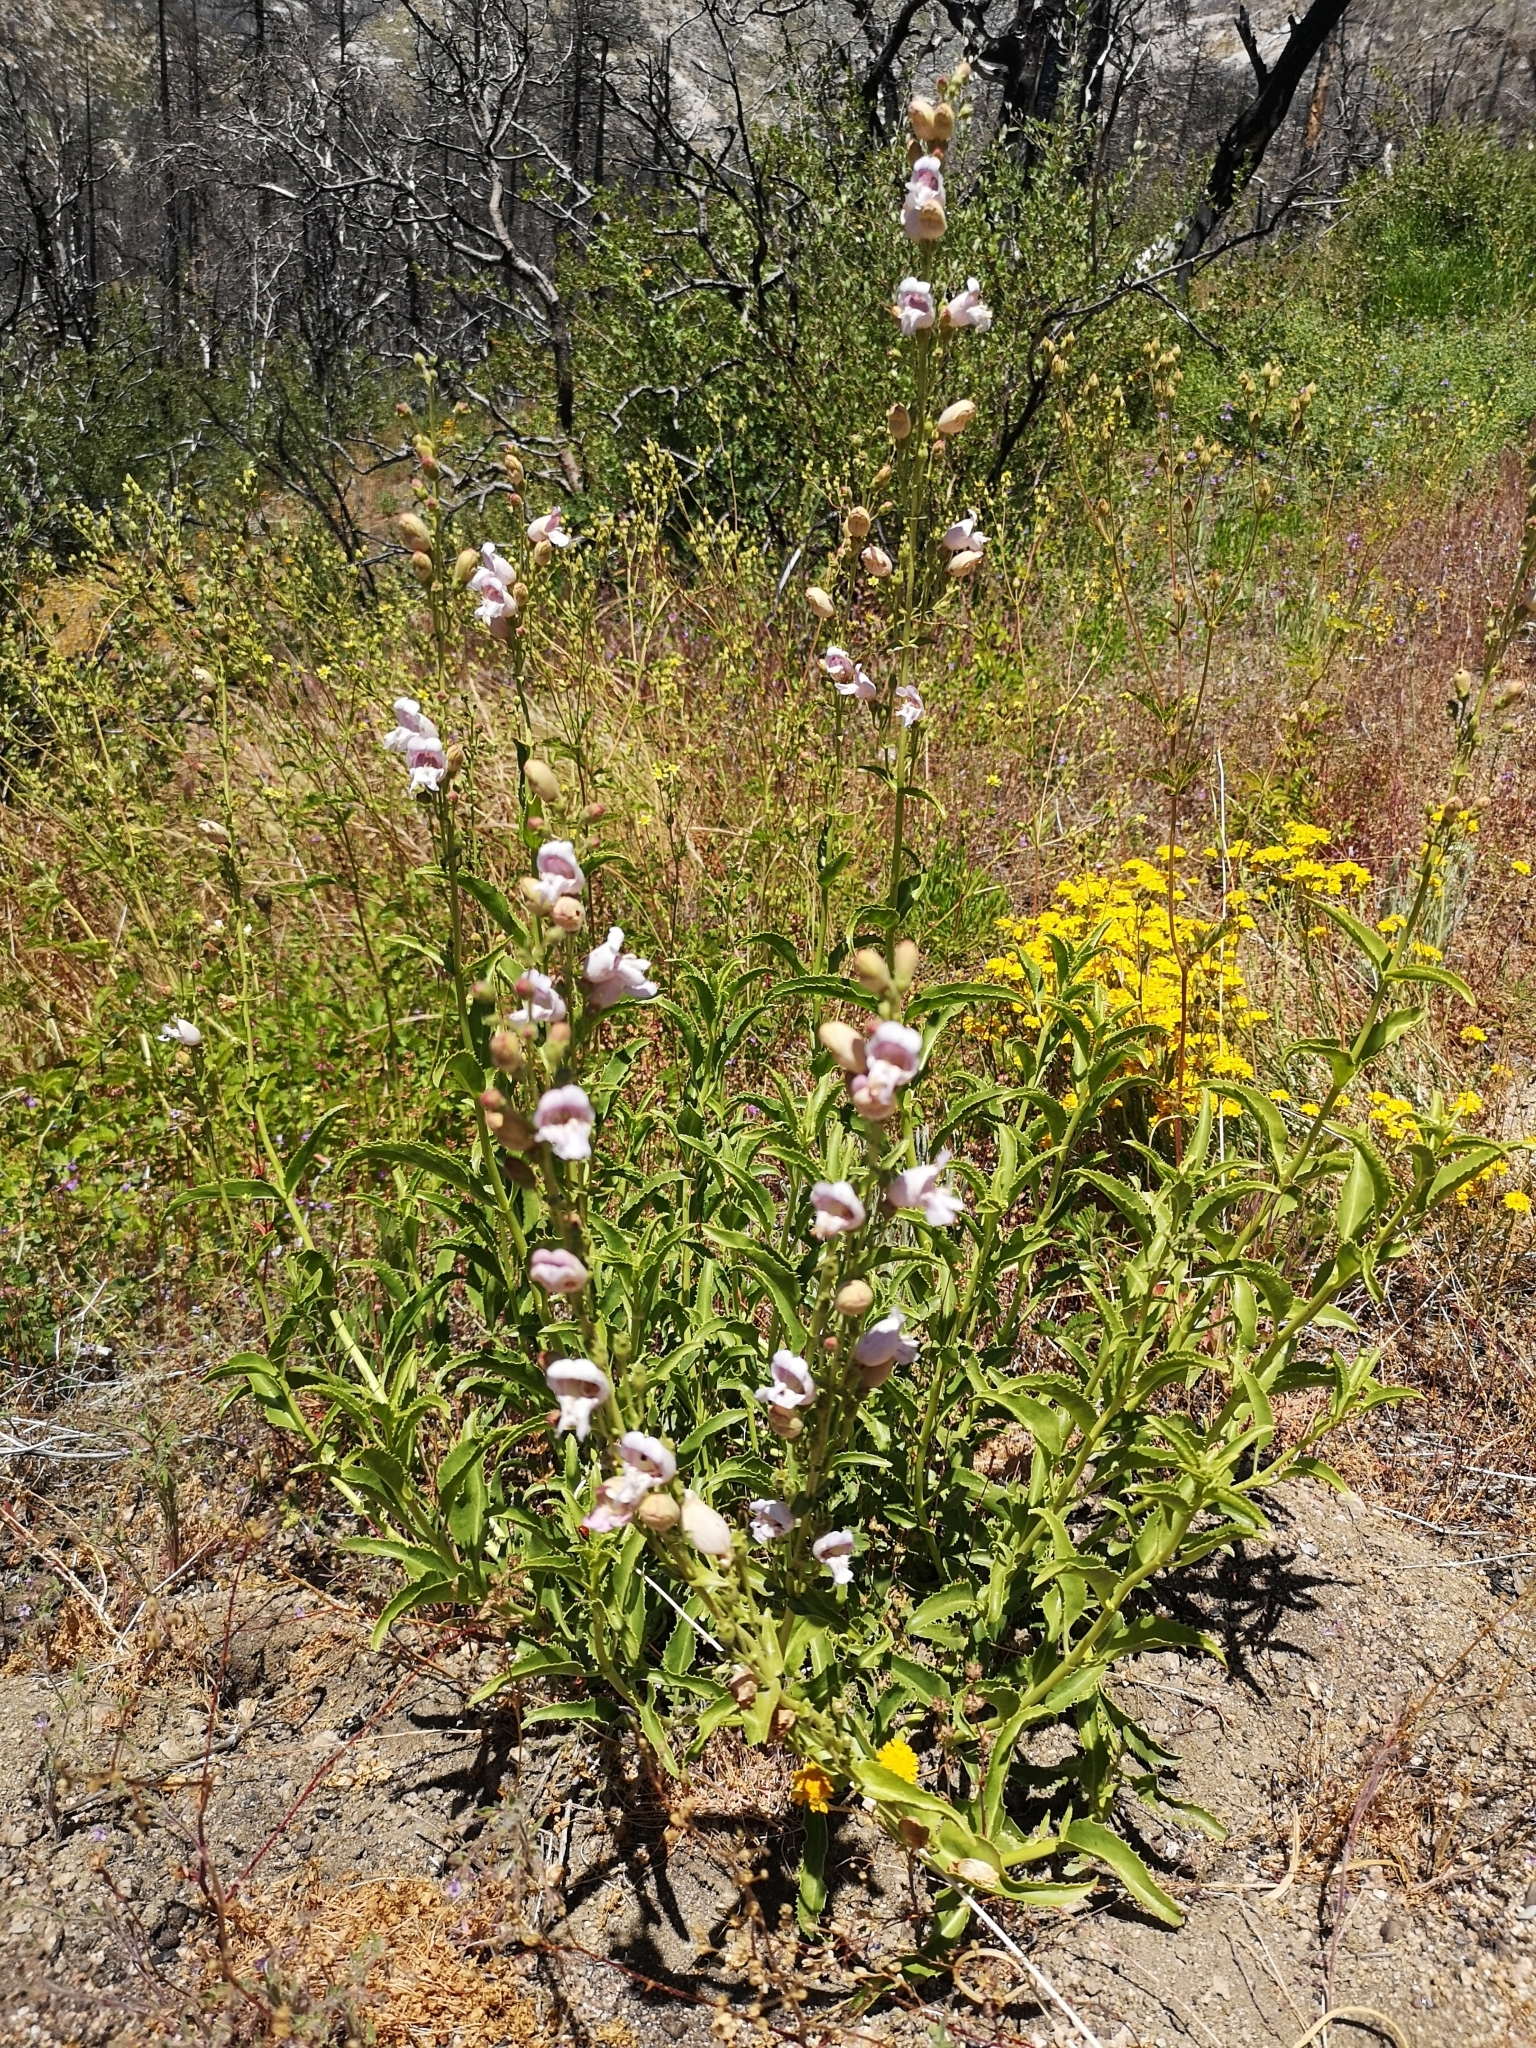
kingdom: Plantae
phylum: Tracheophyta
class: Magnoliopsida
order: Lamiales
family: Plantaginaceae
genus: Penstemon
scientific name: Penstemon grinnellii
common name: Grinnell's beardtongue
